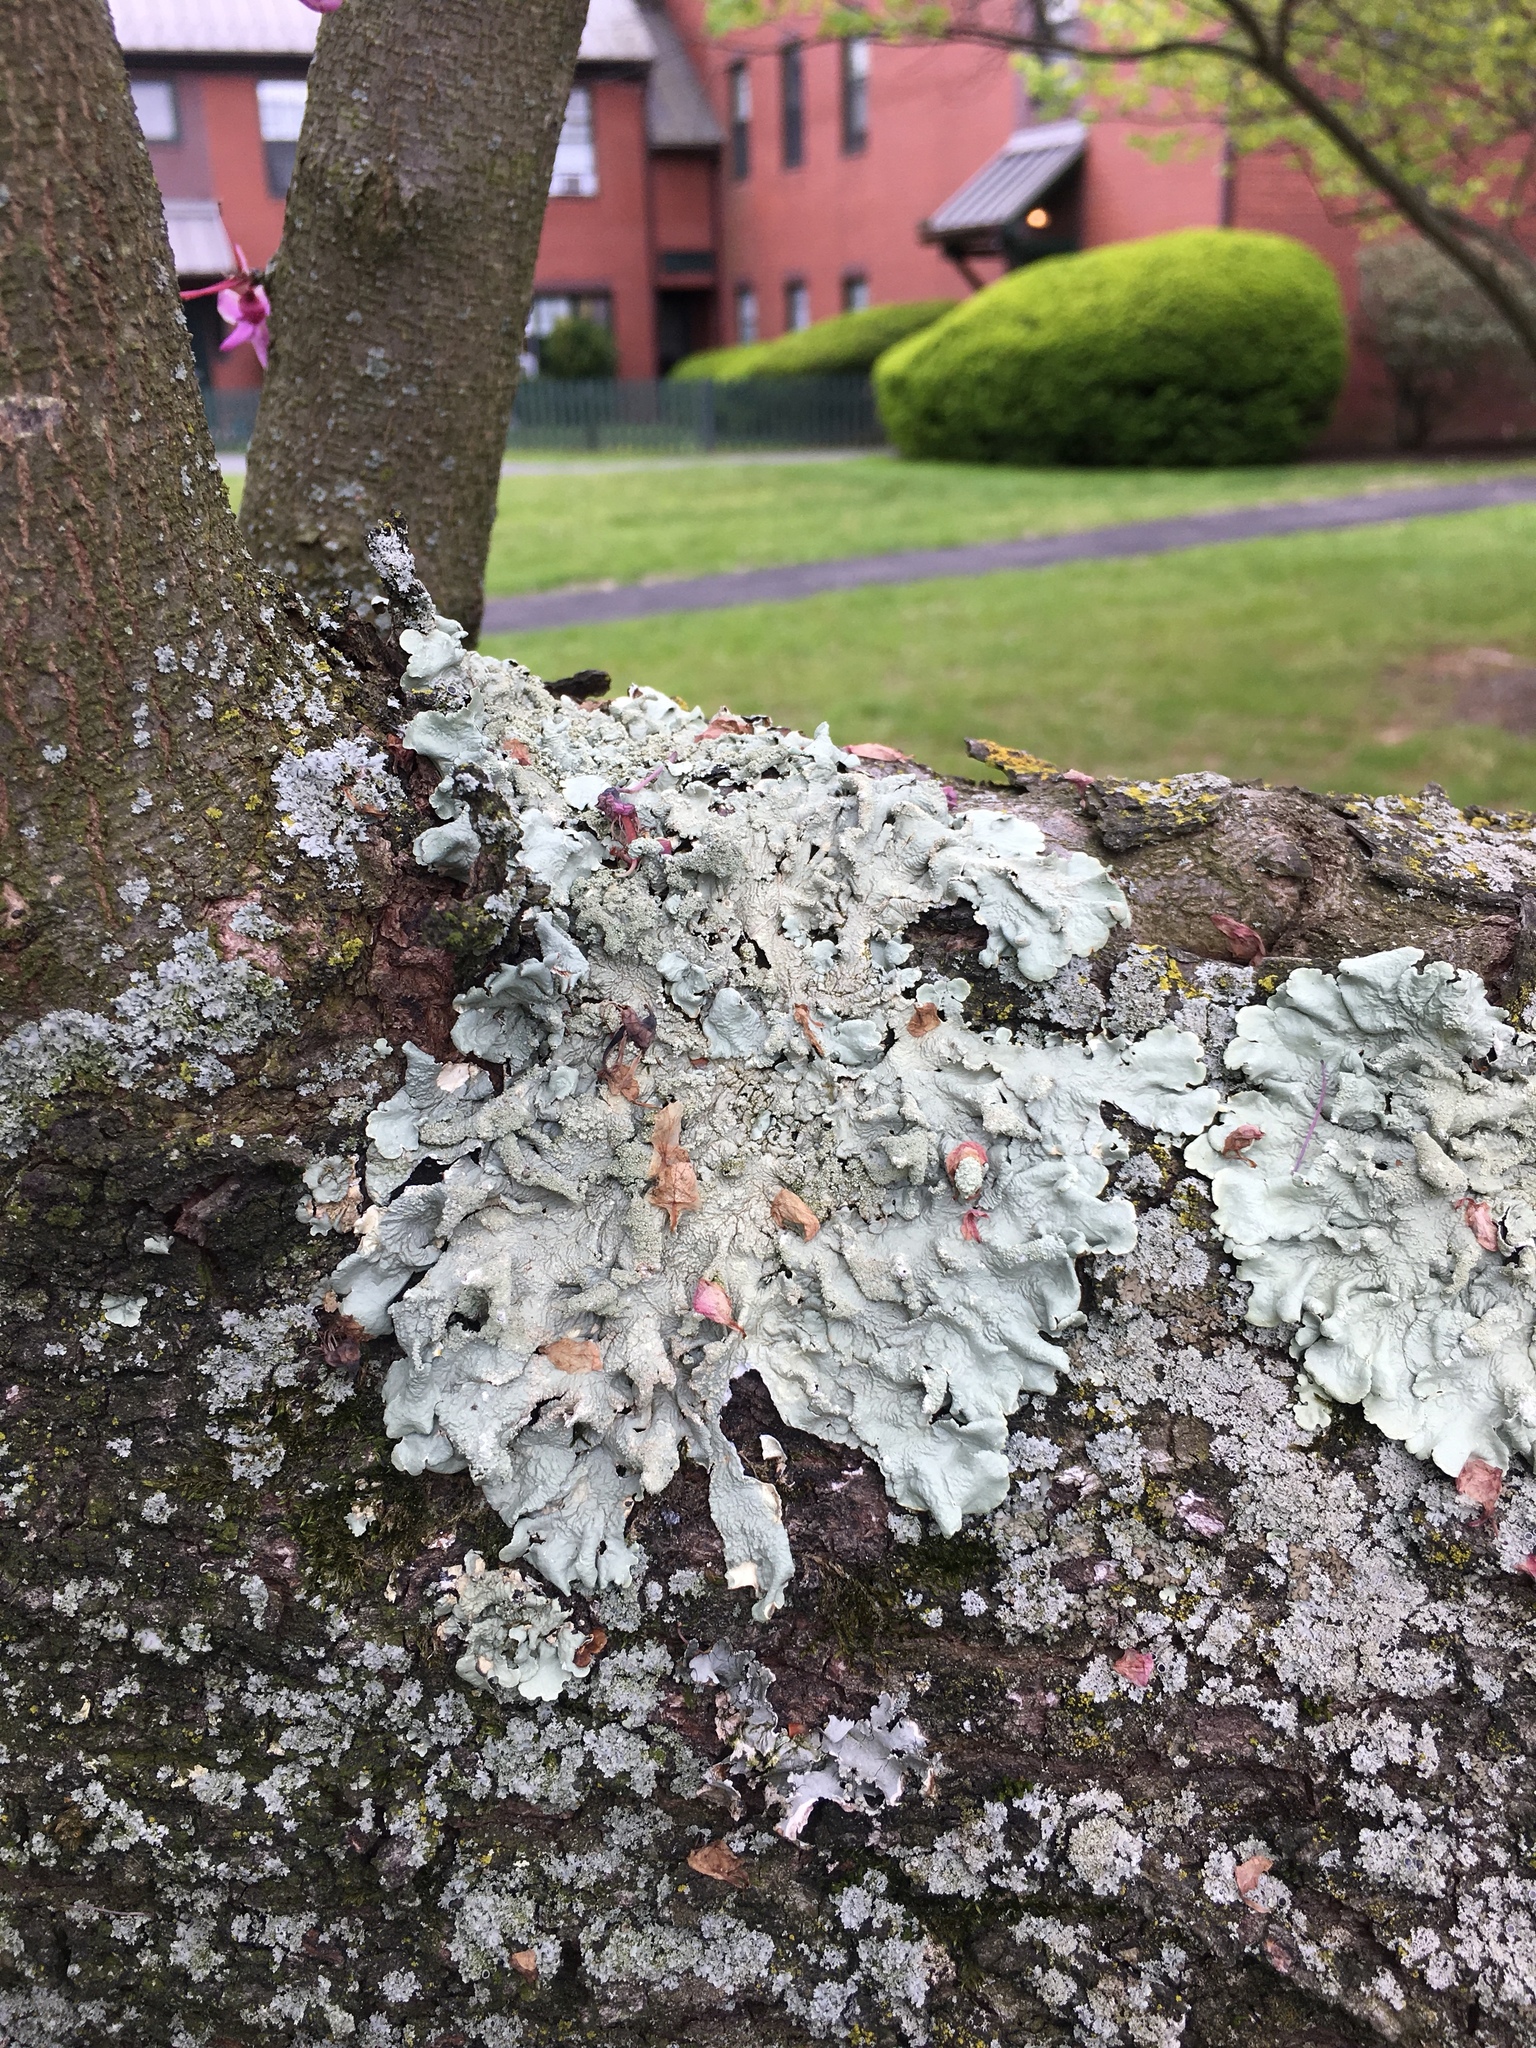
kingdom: Fungi
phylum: Ascomycota
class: Lecanoromycetes
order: Lecanorales
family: Parmeliaceae
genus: Flavoparmelia
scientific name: Flavoparmelia caperata
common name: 40-mile per hour lichen
